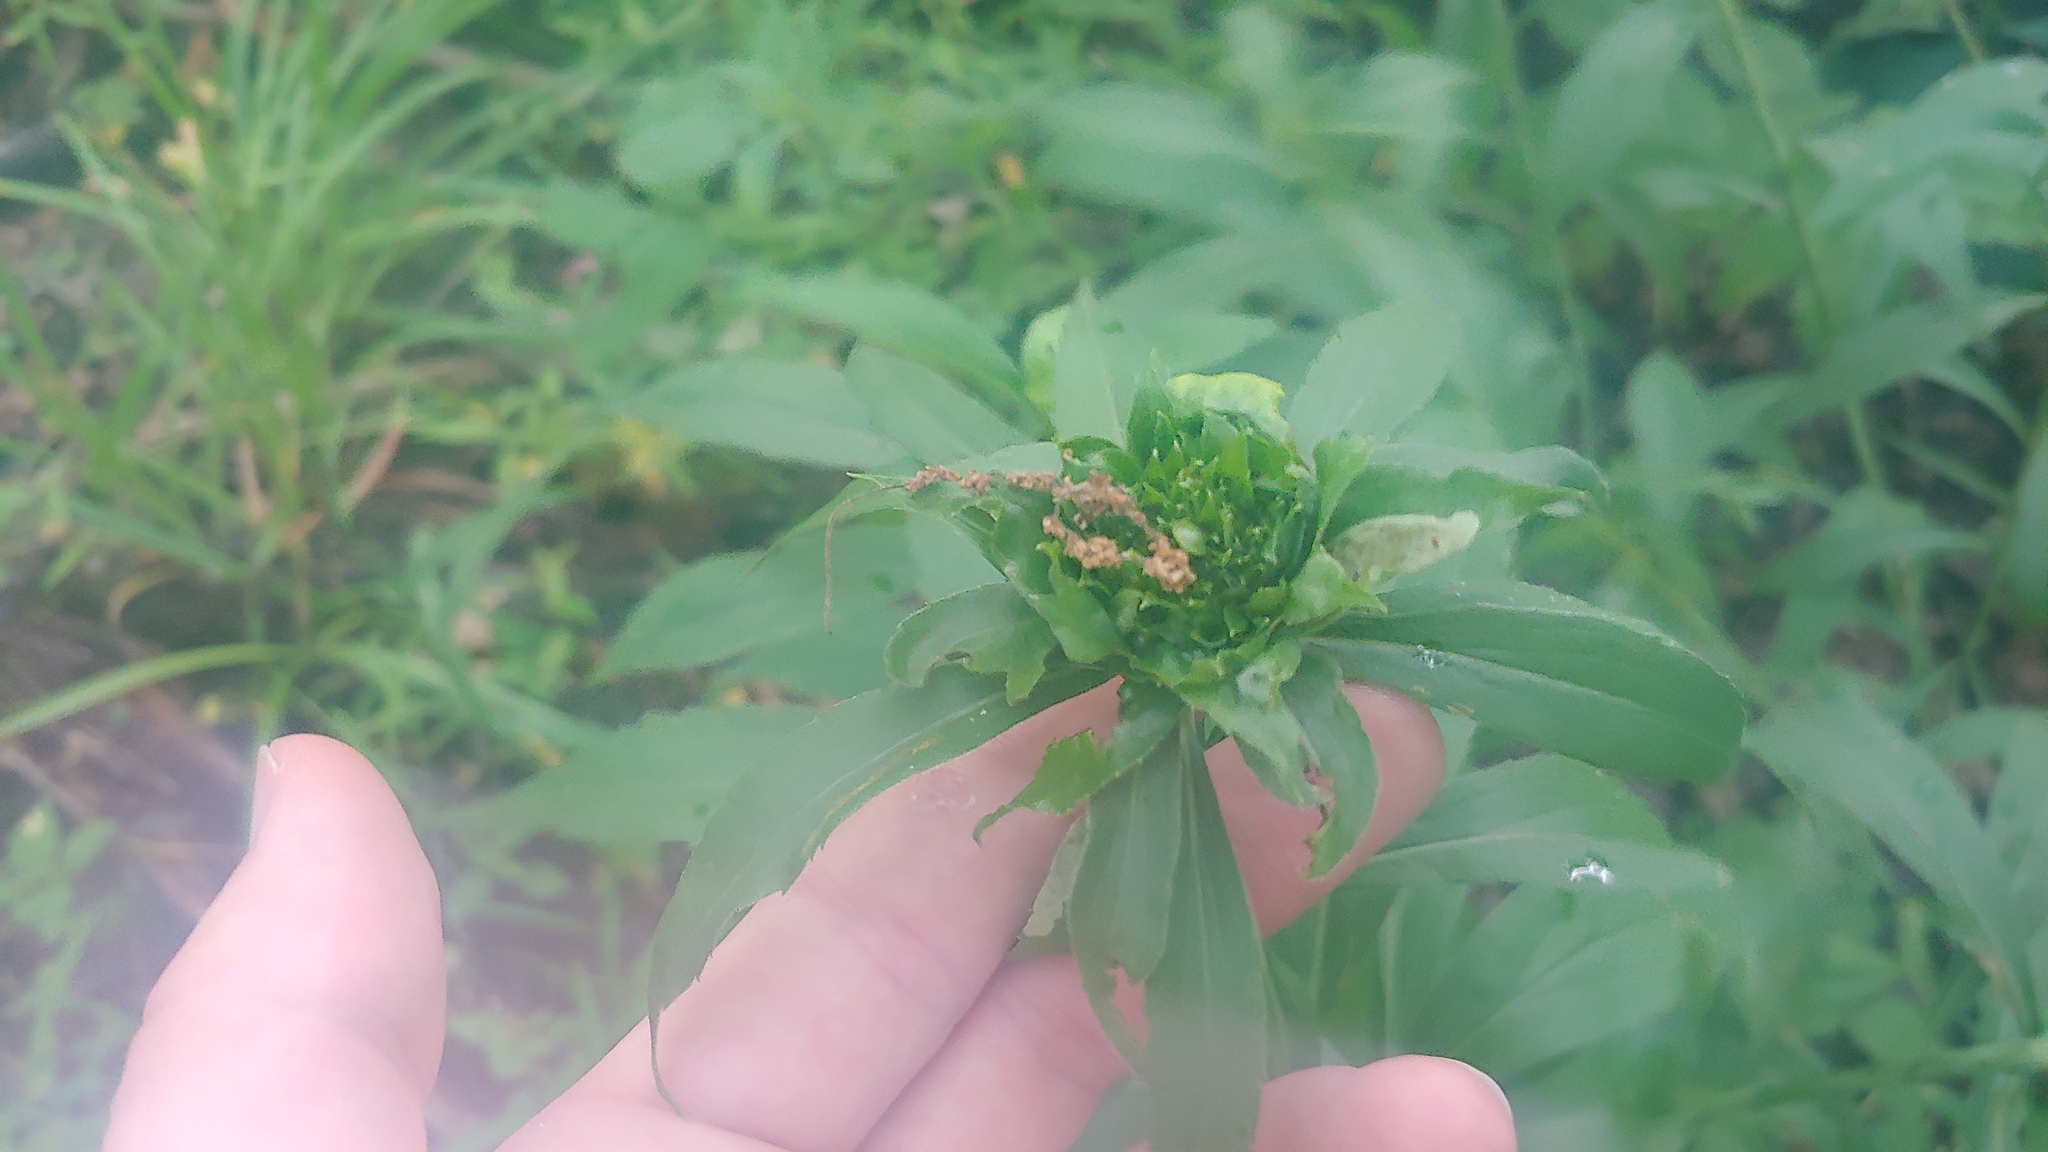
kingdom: Animalia
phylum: Arthropoda
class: Insecta
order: Diptera
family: Cecidomyiidae
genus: Rhopalomyia
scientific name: Rhopalomyia capitata
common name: Giant goldenrod bunch gall midge
